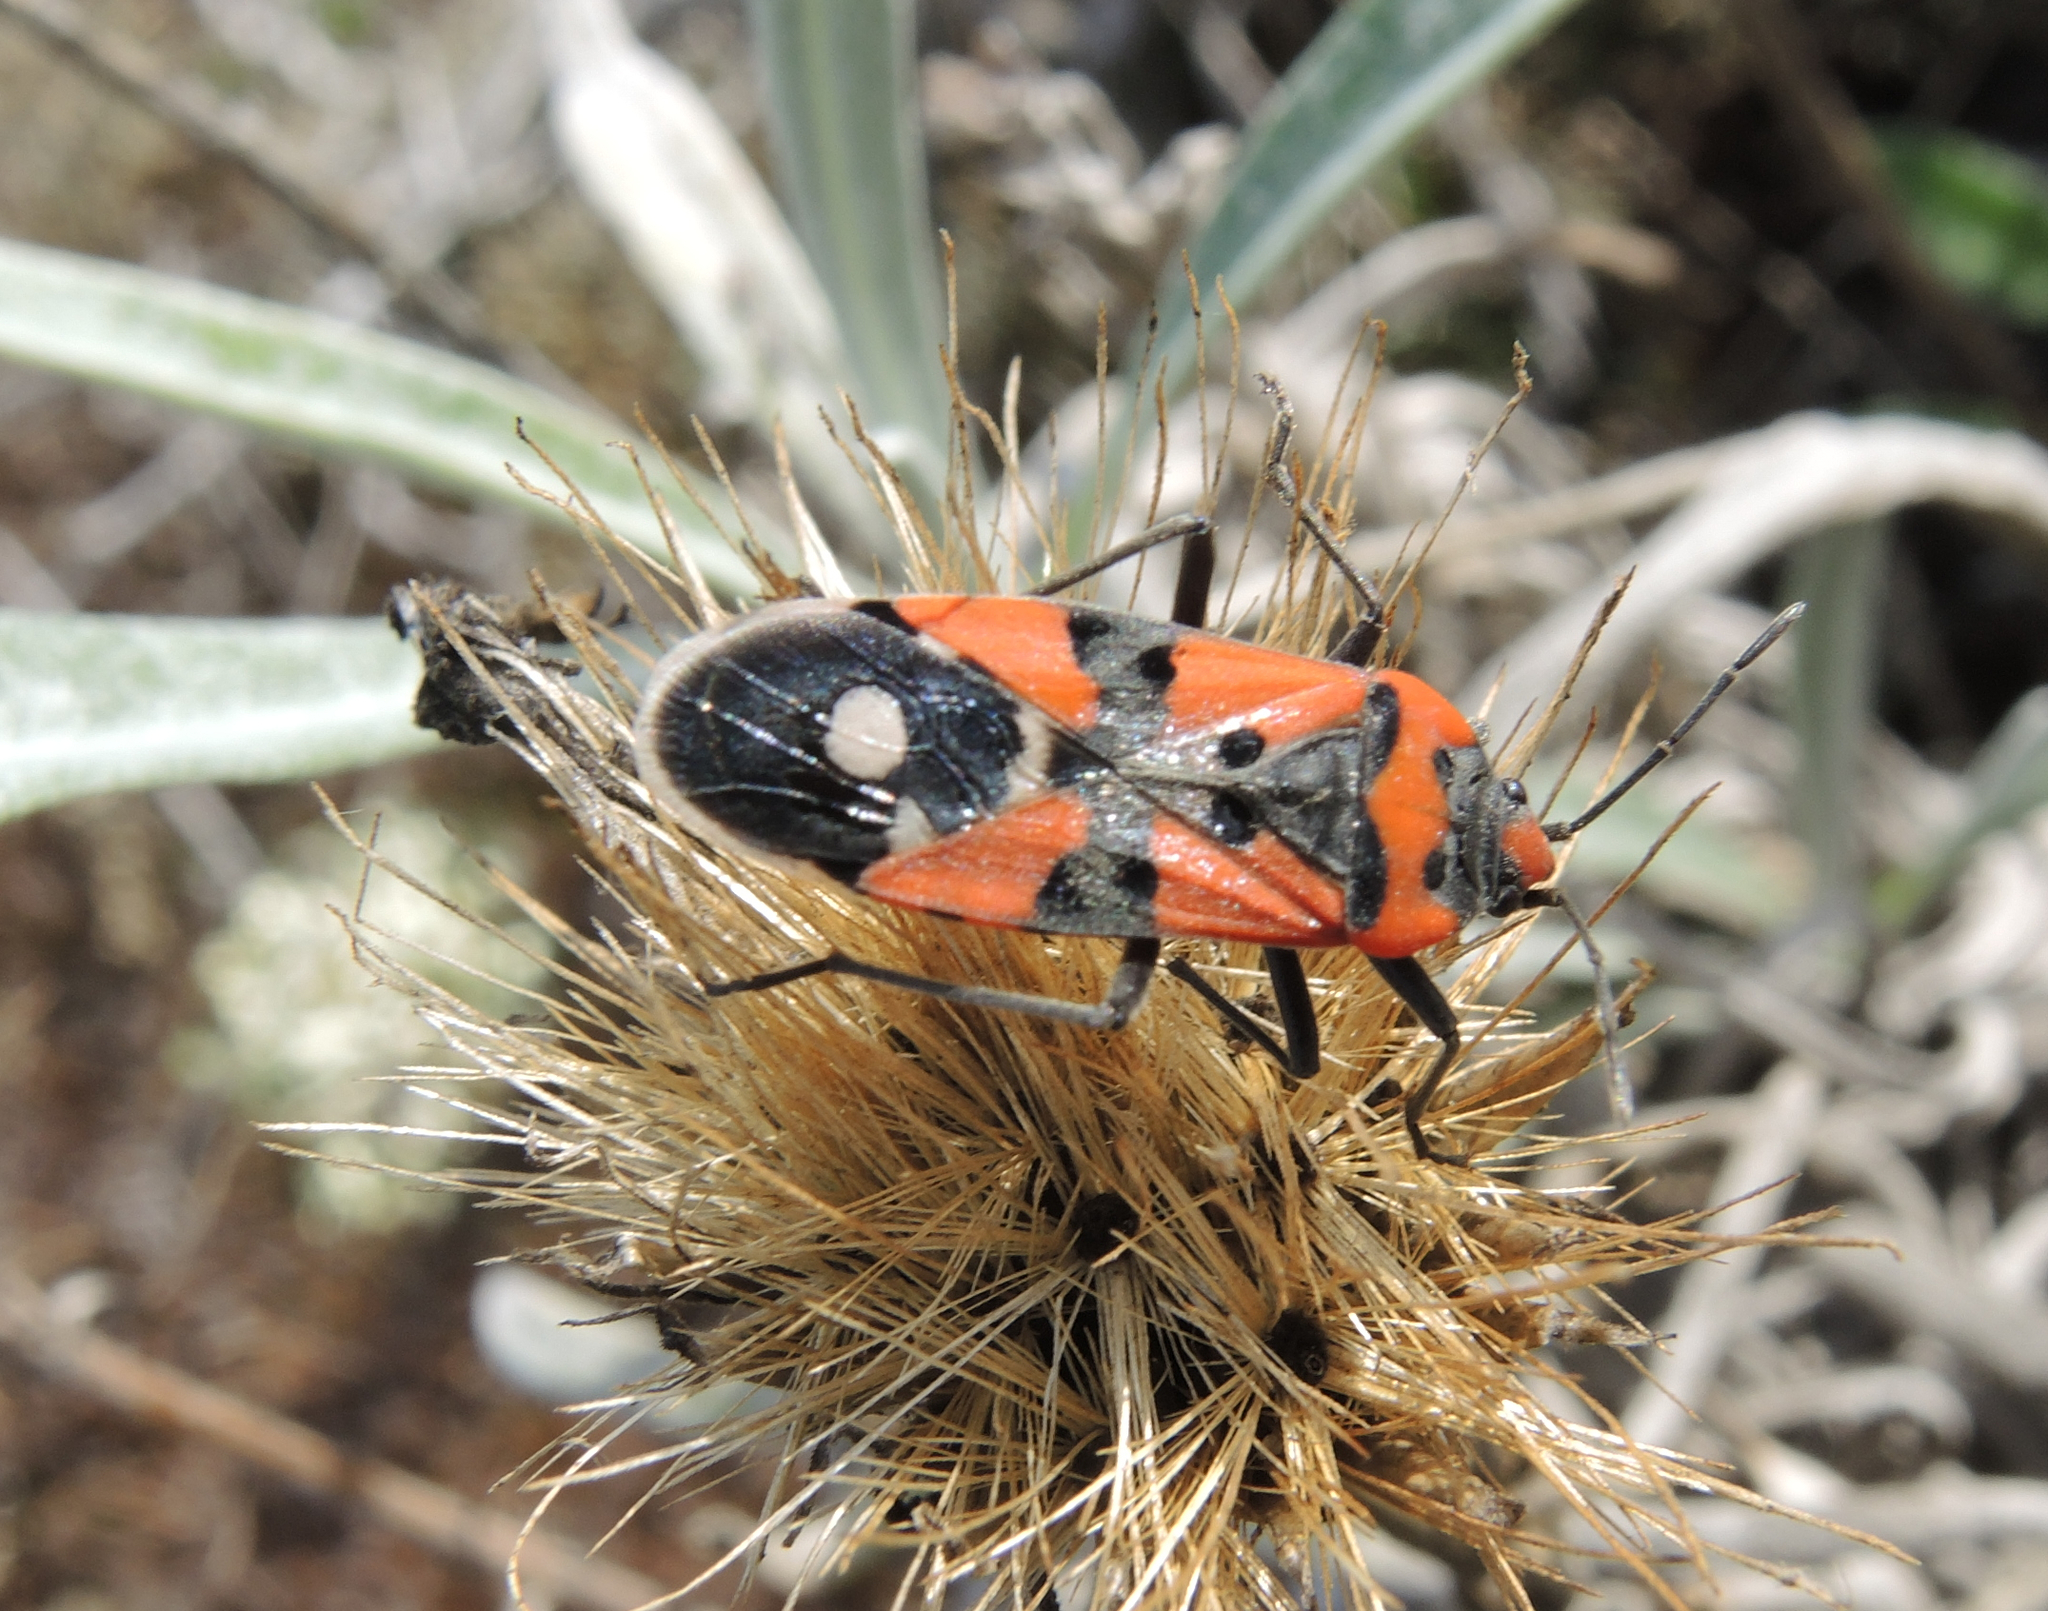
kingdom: Animalia
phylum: Arthropoda
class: Insecta
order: Hemiptera
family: Lygaeidae
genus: Lygaeus
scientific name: Lygaeus equestris
